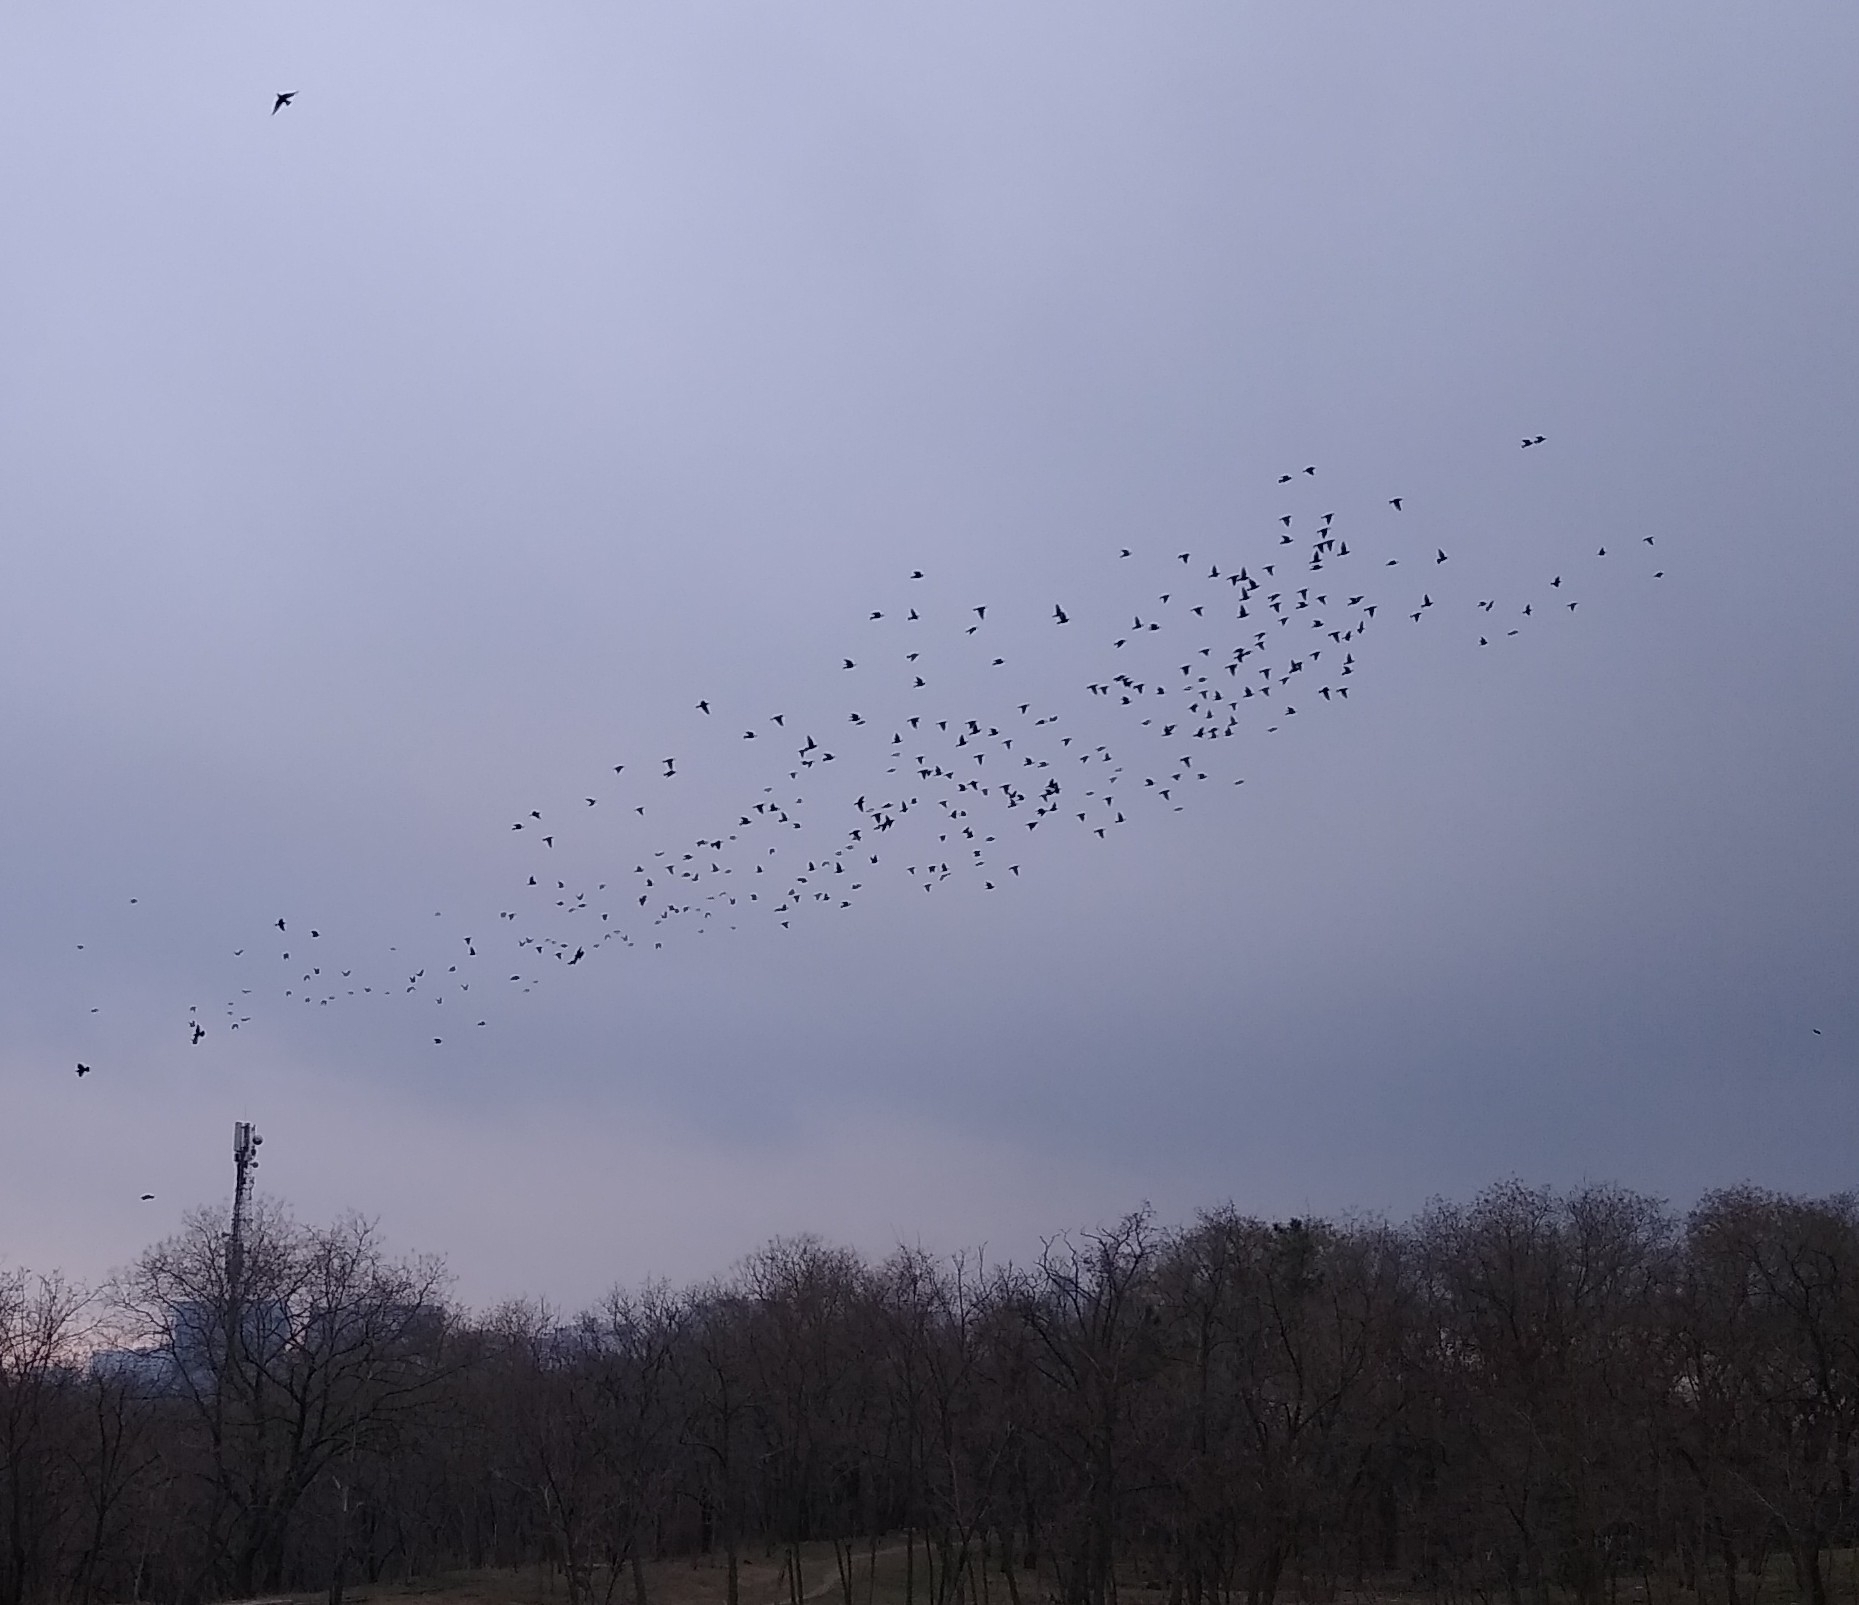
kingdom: Animalia
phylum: Chordata
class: Aves
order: Passeriformes
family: Sturnidae
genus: Sturnus
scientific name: Sturnus vulgaris
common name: Common starling
